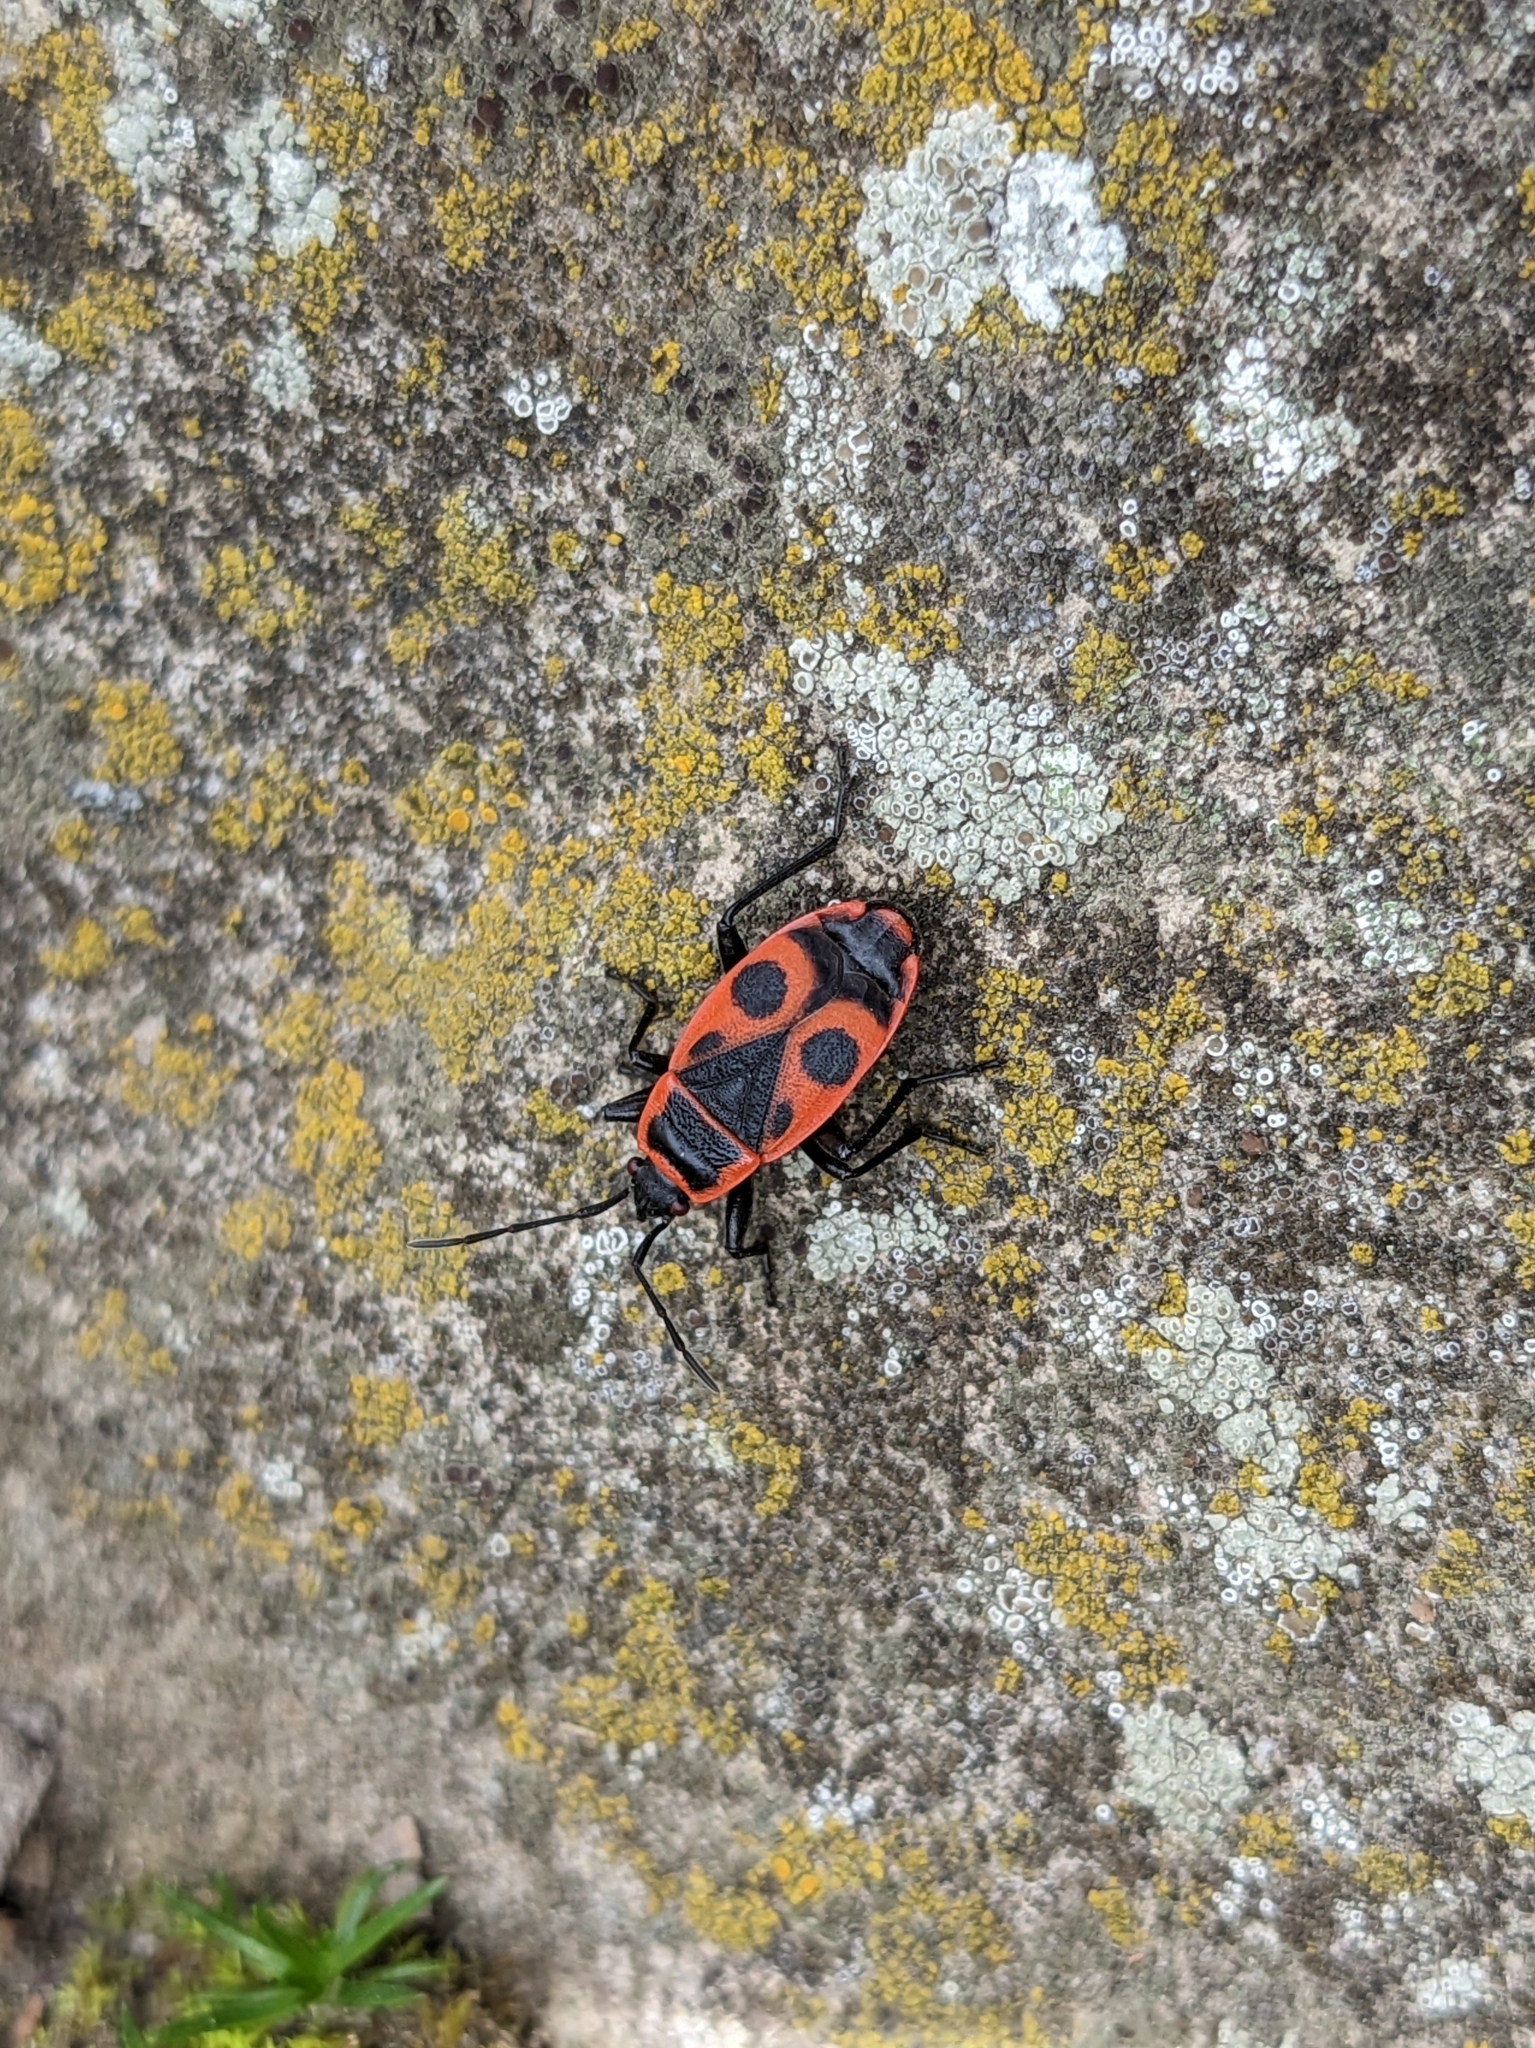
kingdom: Animalia
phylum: Arthropoda
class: Insecta
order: Hemiptera
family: Pyrrhocoridae
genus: Pyrrhocoris
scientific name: Pyrrhocoris apterus
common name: Firebug
